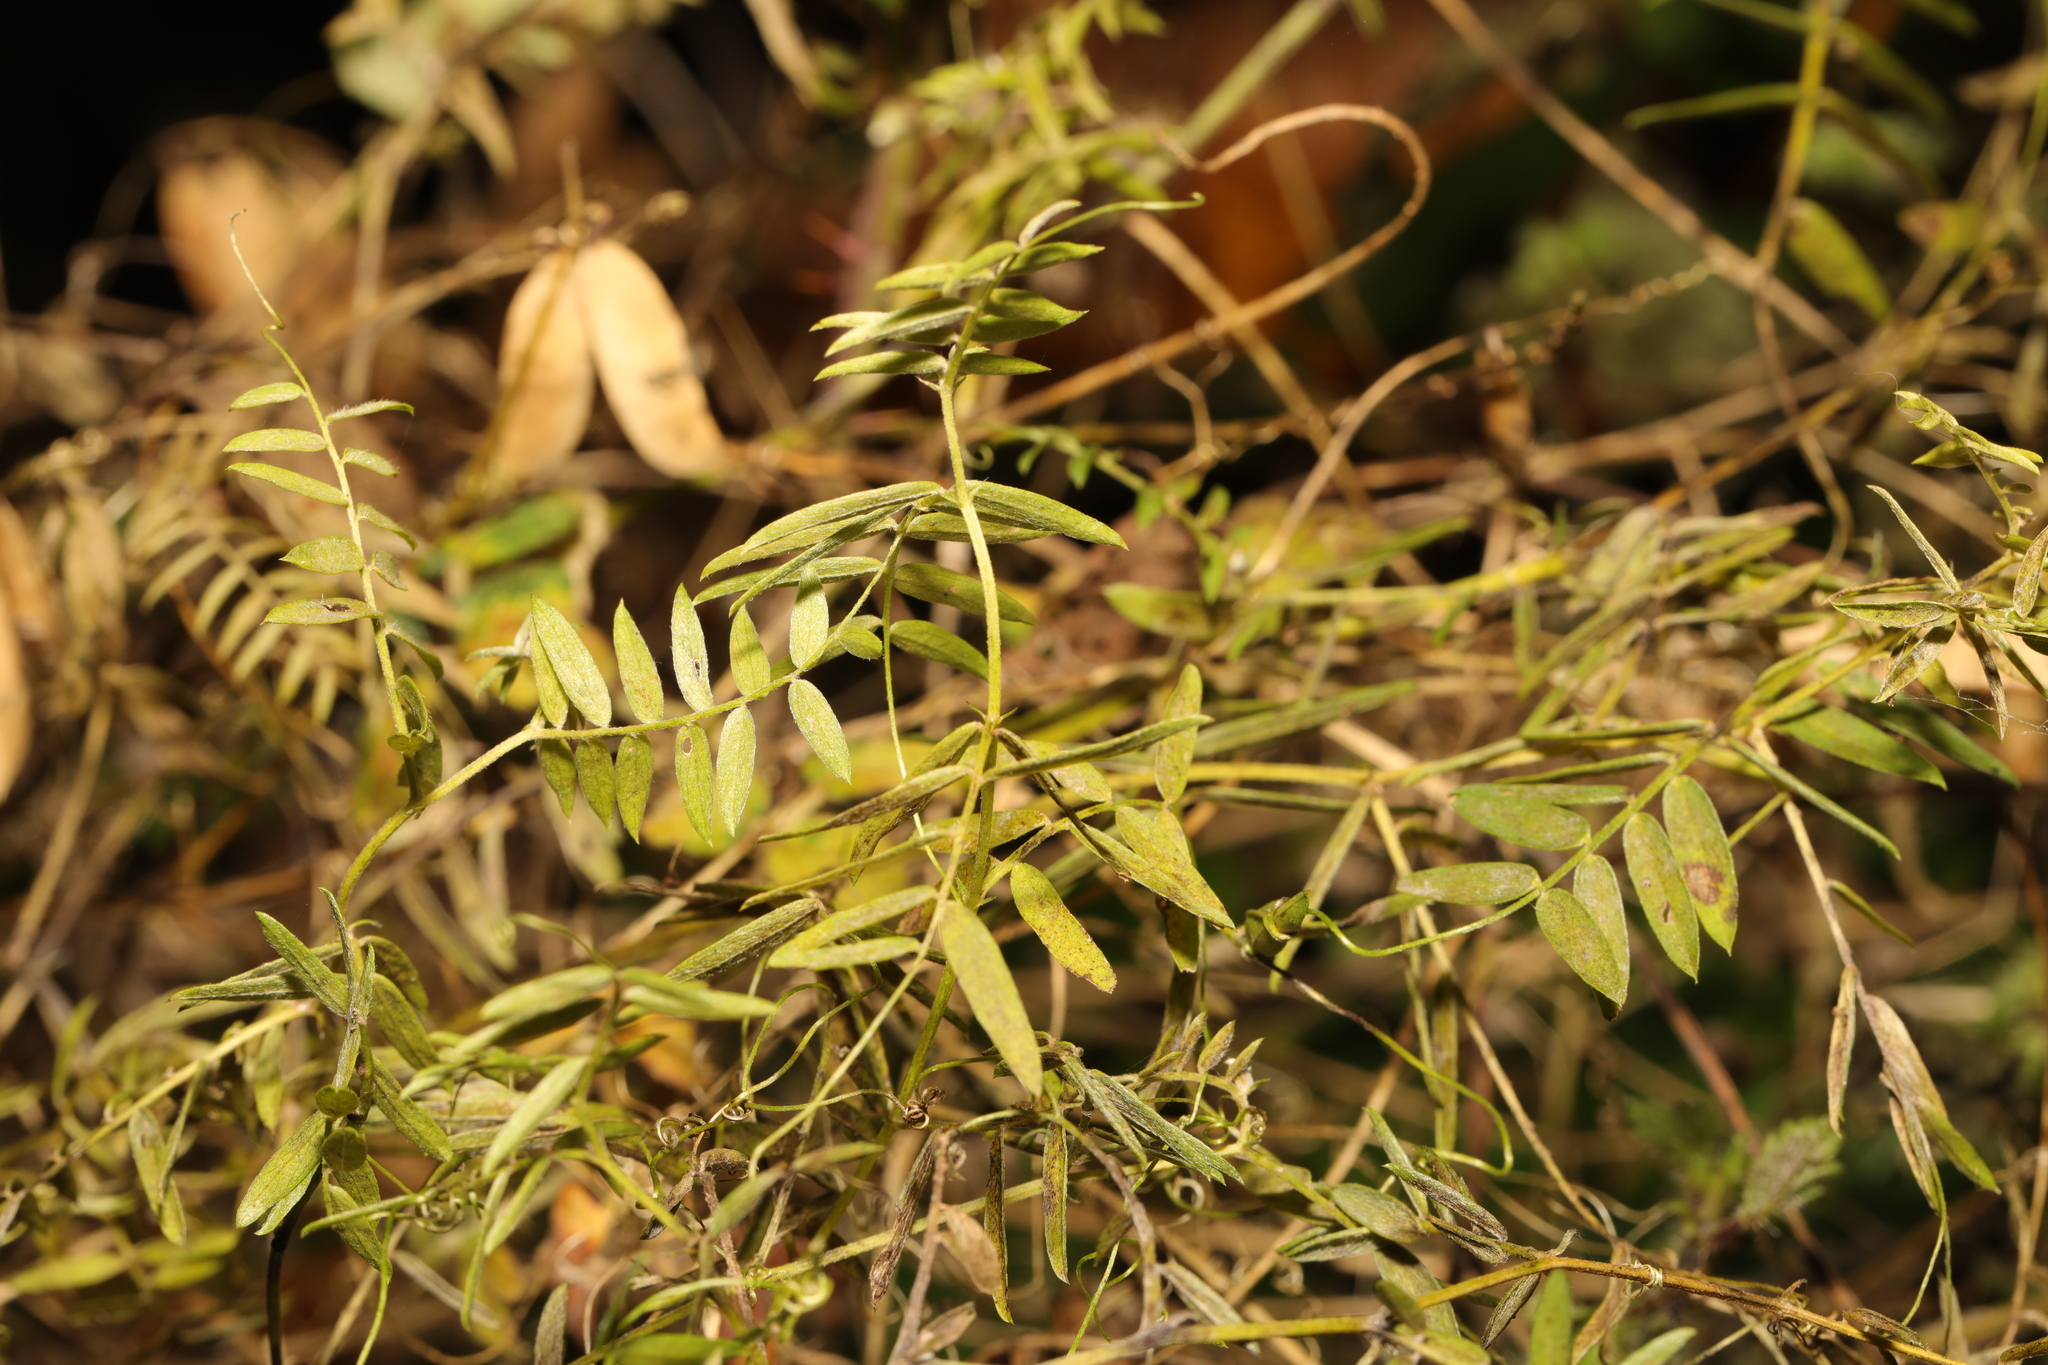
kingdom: Plantae
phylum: Tracheophyta
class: Magnoliopsida
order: Fabales
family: Fabaceae
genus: Vicia
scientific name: Vicia cracca
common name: Bird vetch
